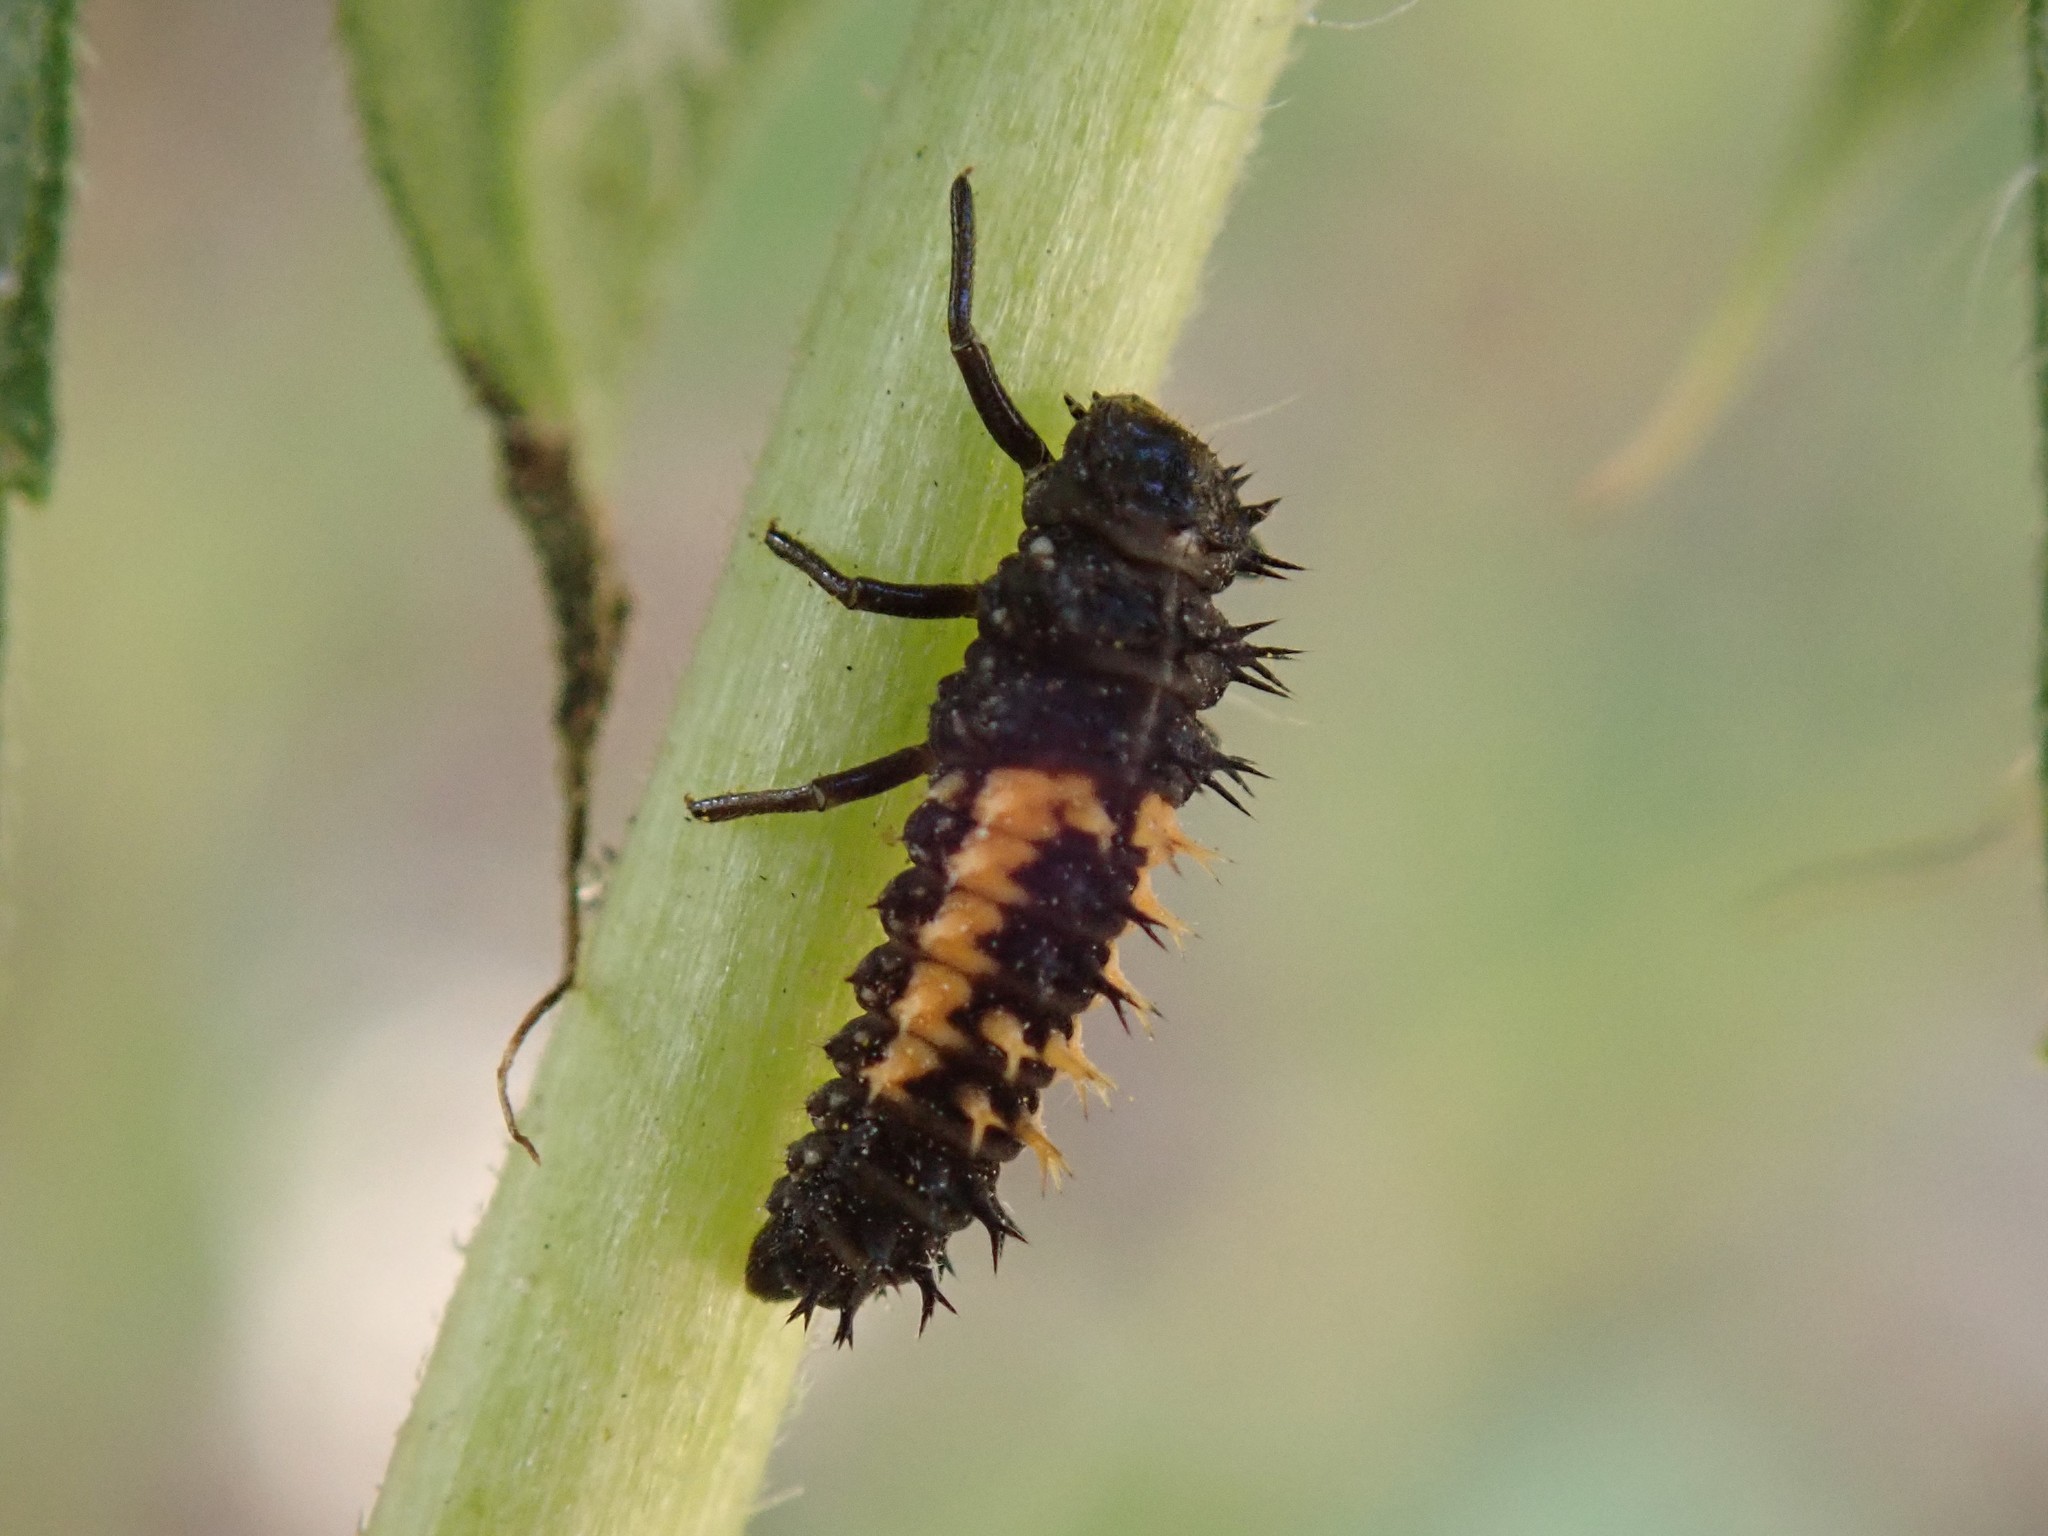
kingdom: Animalia
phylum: Arthropoda
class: Insecta
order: Coleoptera
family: Coccinellidae
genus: Harmonia
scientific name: Harmonia axyridis
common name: Harlequin ladybird
